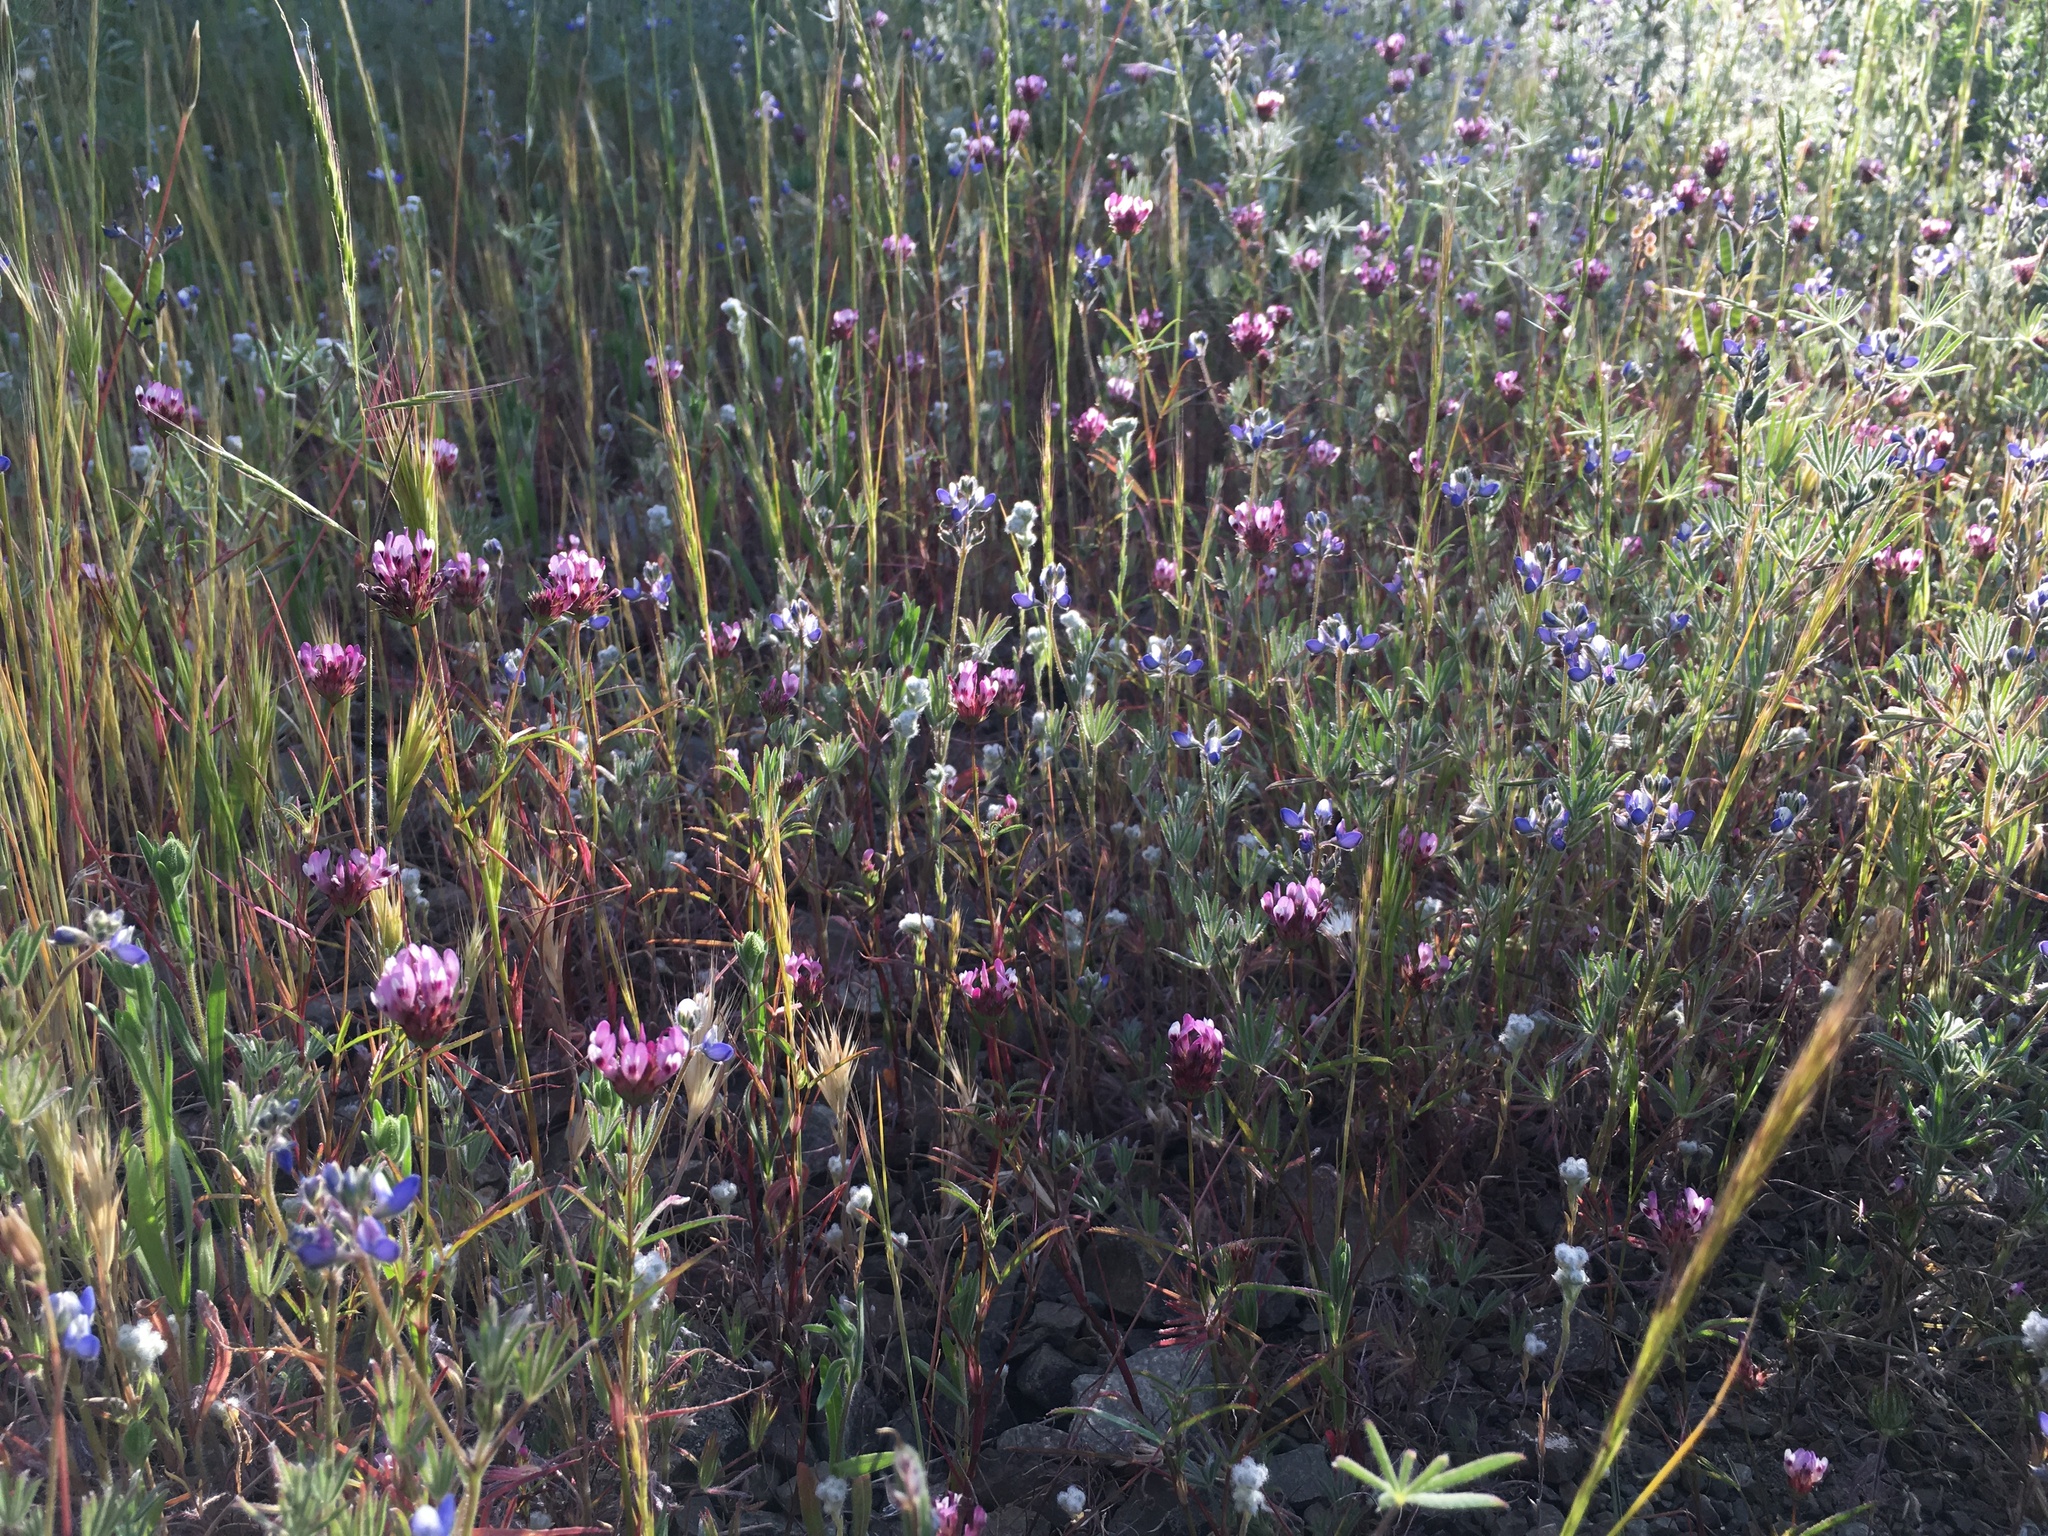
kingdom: Plantae
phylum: Tracheophyta
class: Magnoliopsida
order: Fabales
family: Fabaceae
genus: Trifolium
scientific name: Trifolium willdenovii
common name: Tomcat clover
